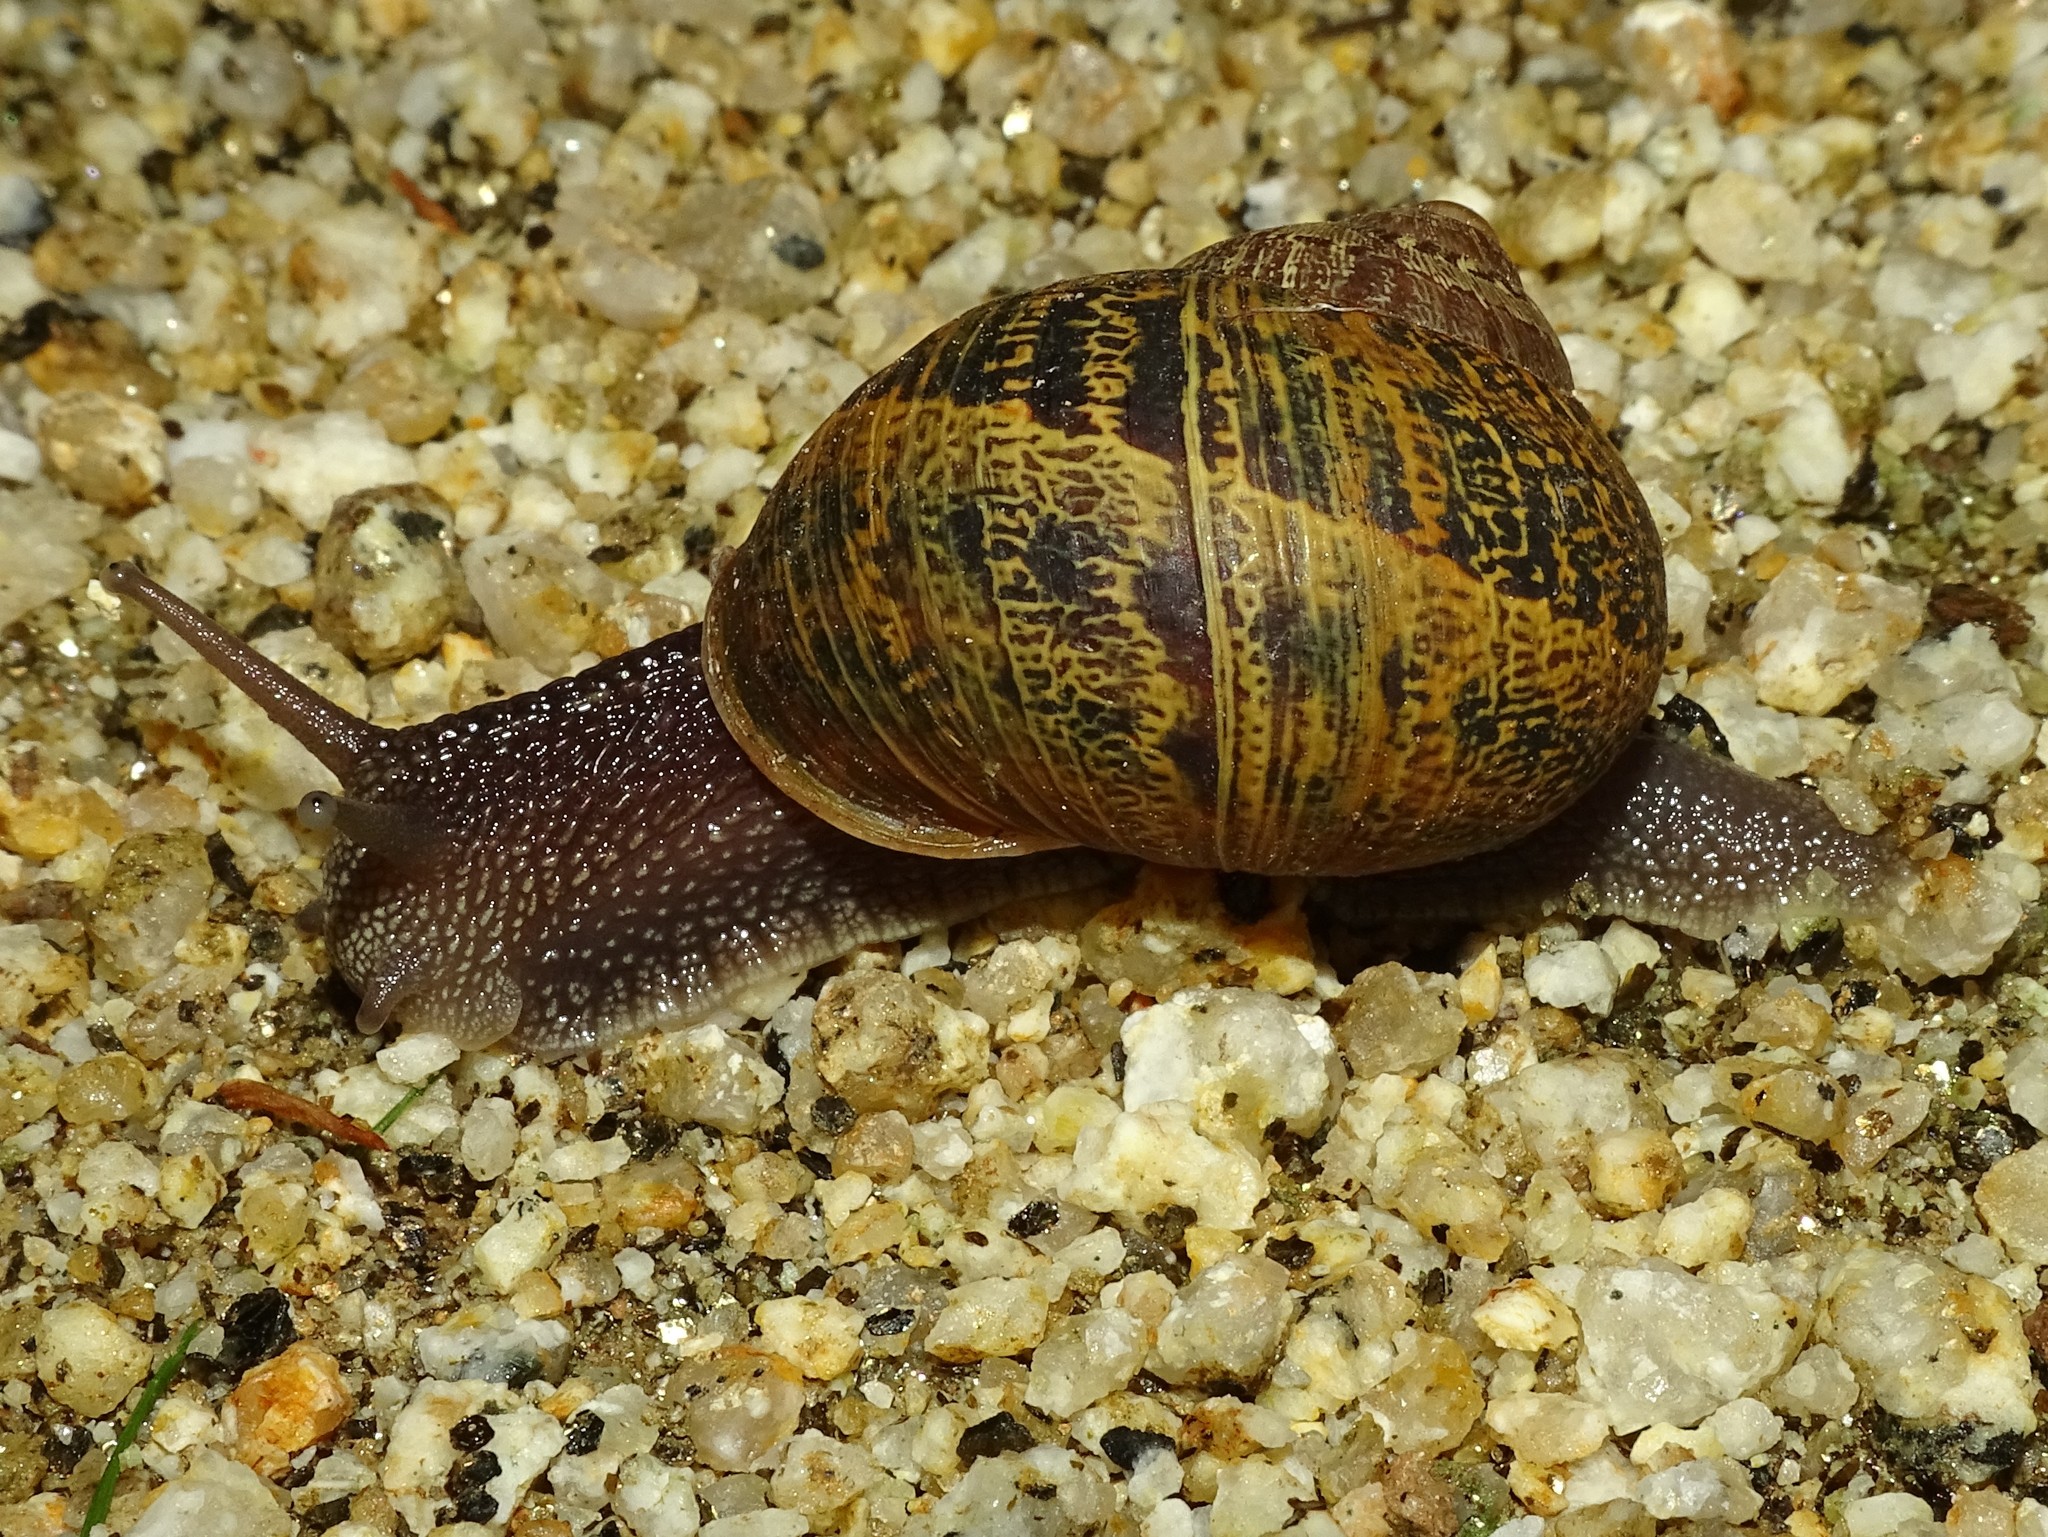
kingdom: Animalia
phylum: Mollusca
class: Gastropoda
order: Stylommatophora
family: Helicidae
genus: Cornu
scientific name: Cornu aspersum
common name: Brown garden snail
